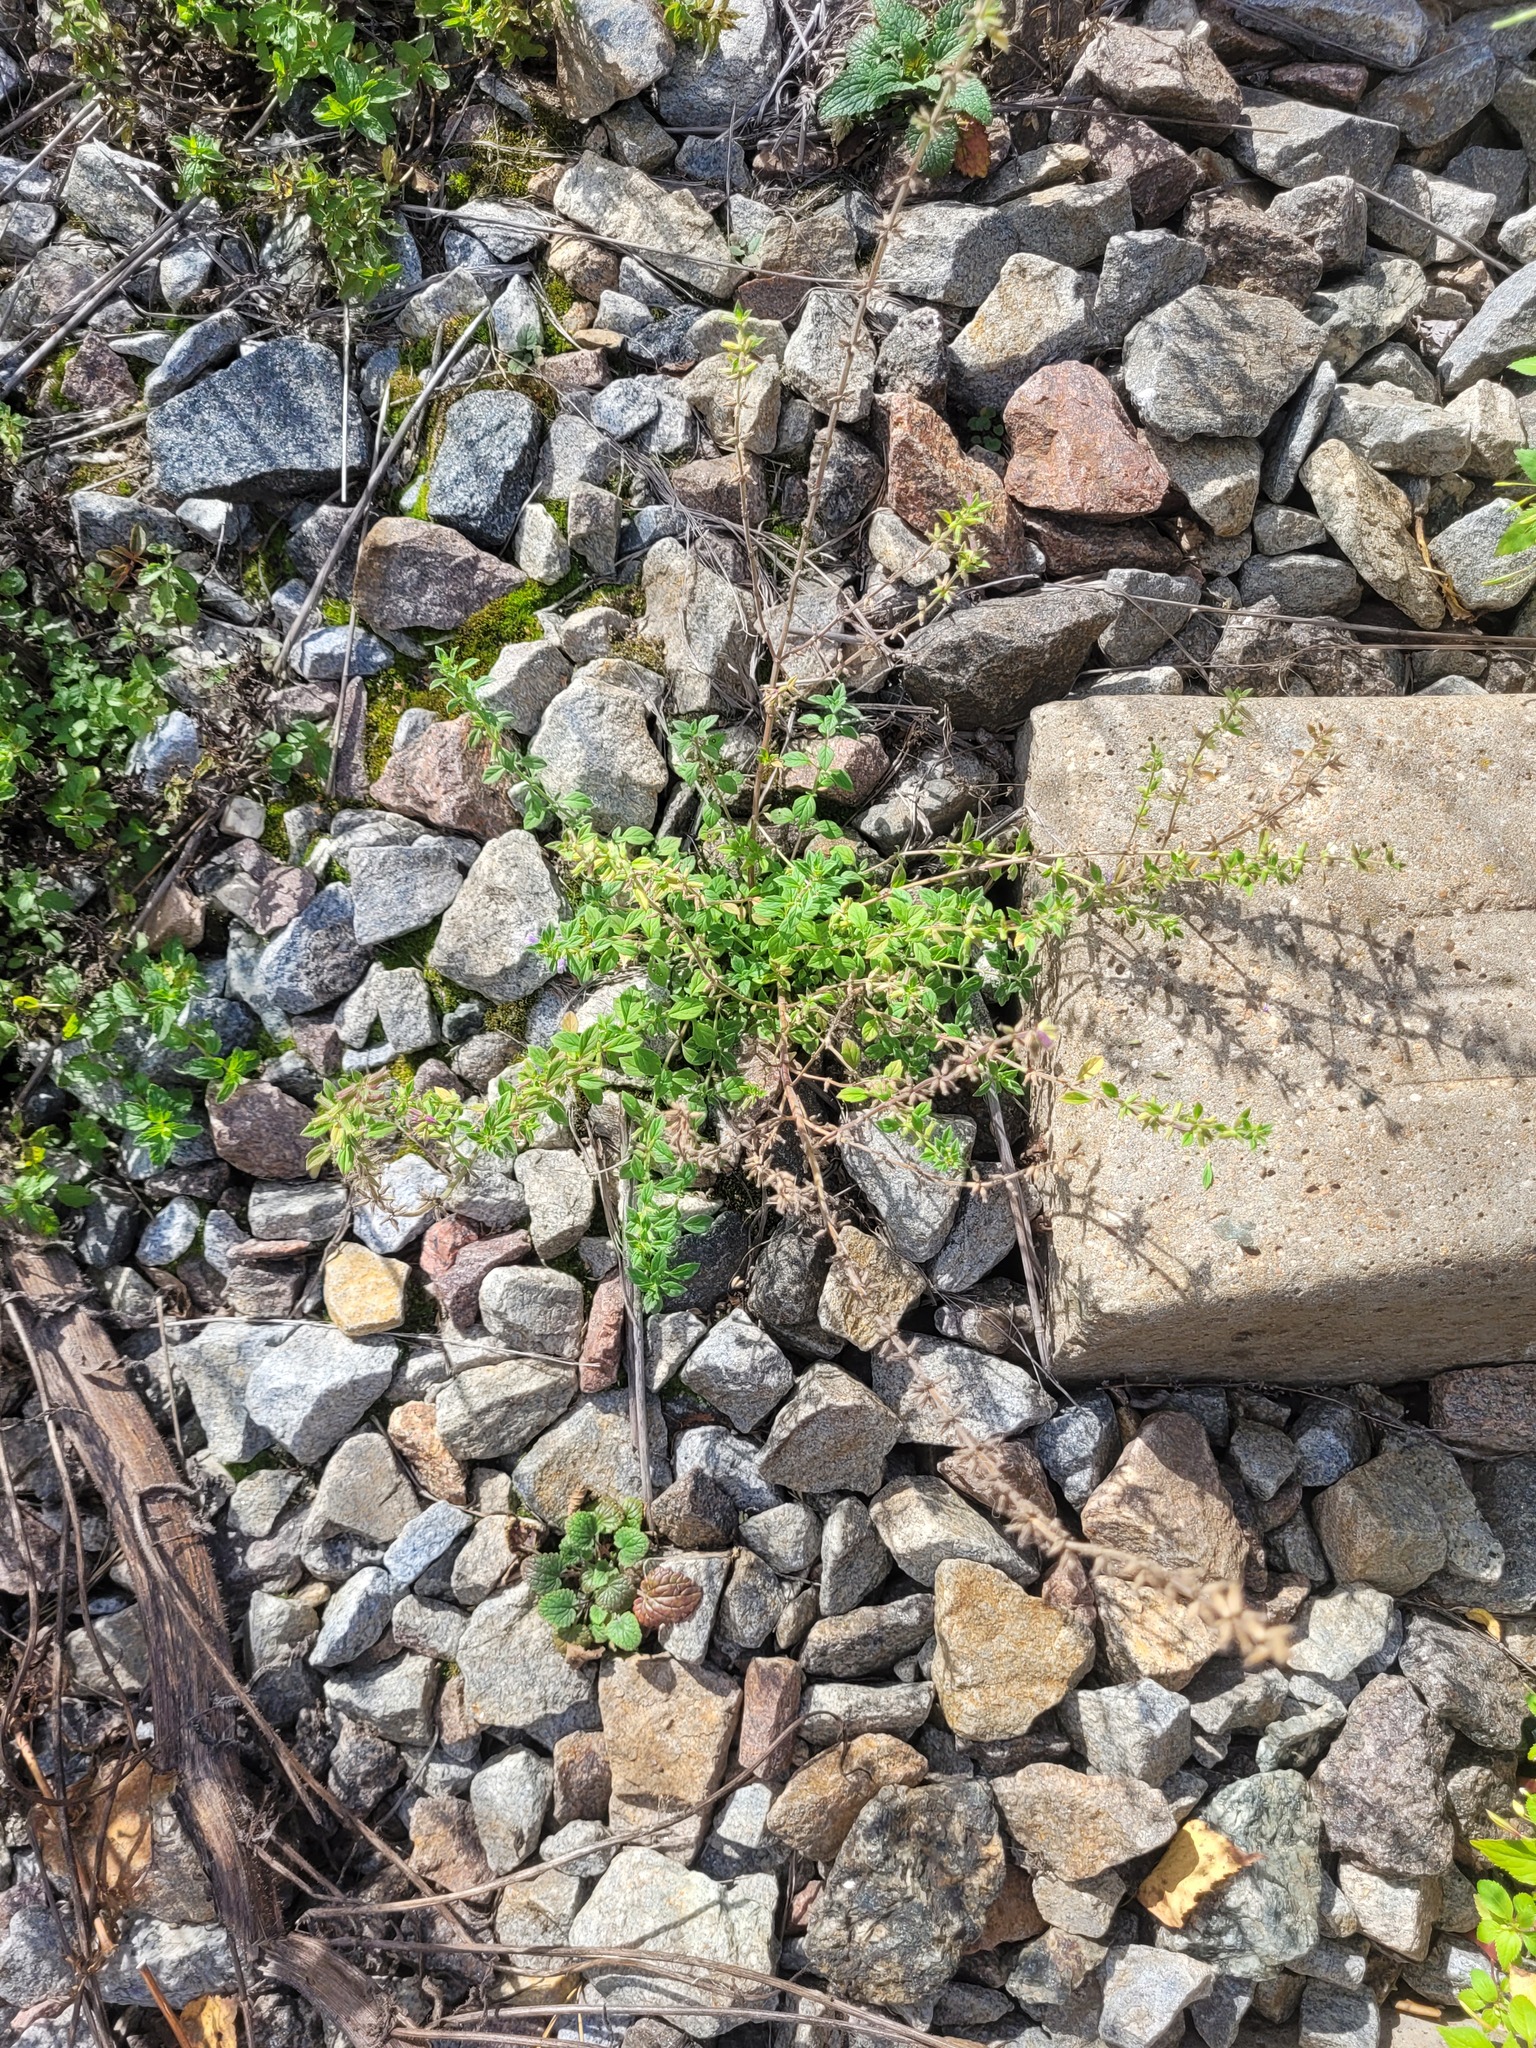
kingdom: Plantae
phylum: Tracheophyta
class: Magnoliopsida
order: Lamiales
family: Lamiaceae
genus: Clinopodium
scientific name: Clinopodium acinos
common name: Basil thyme
